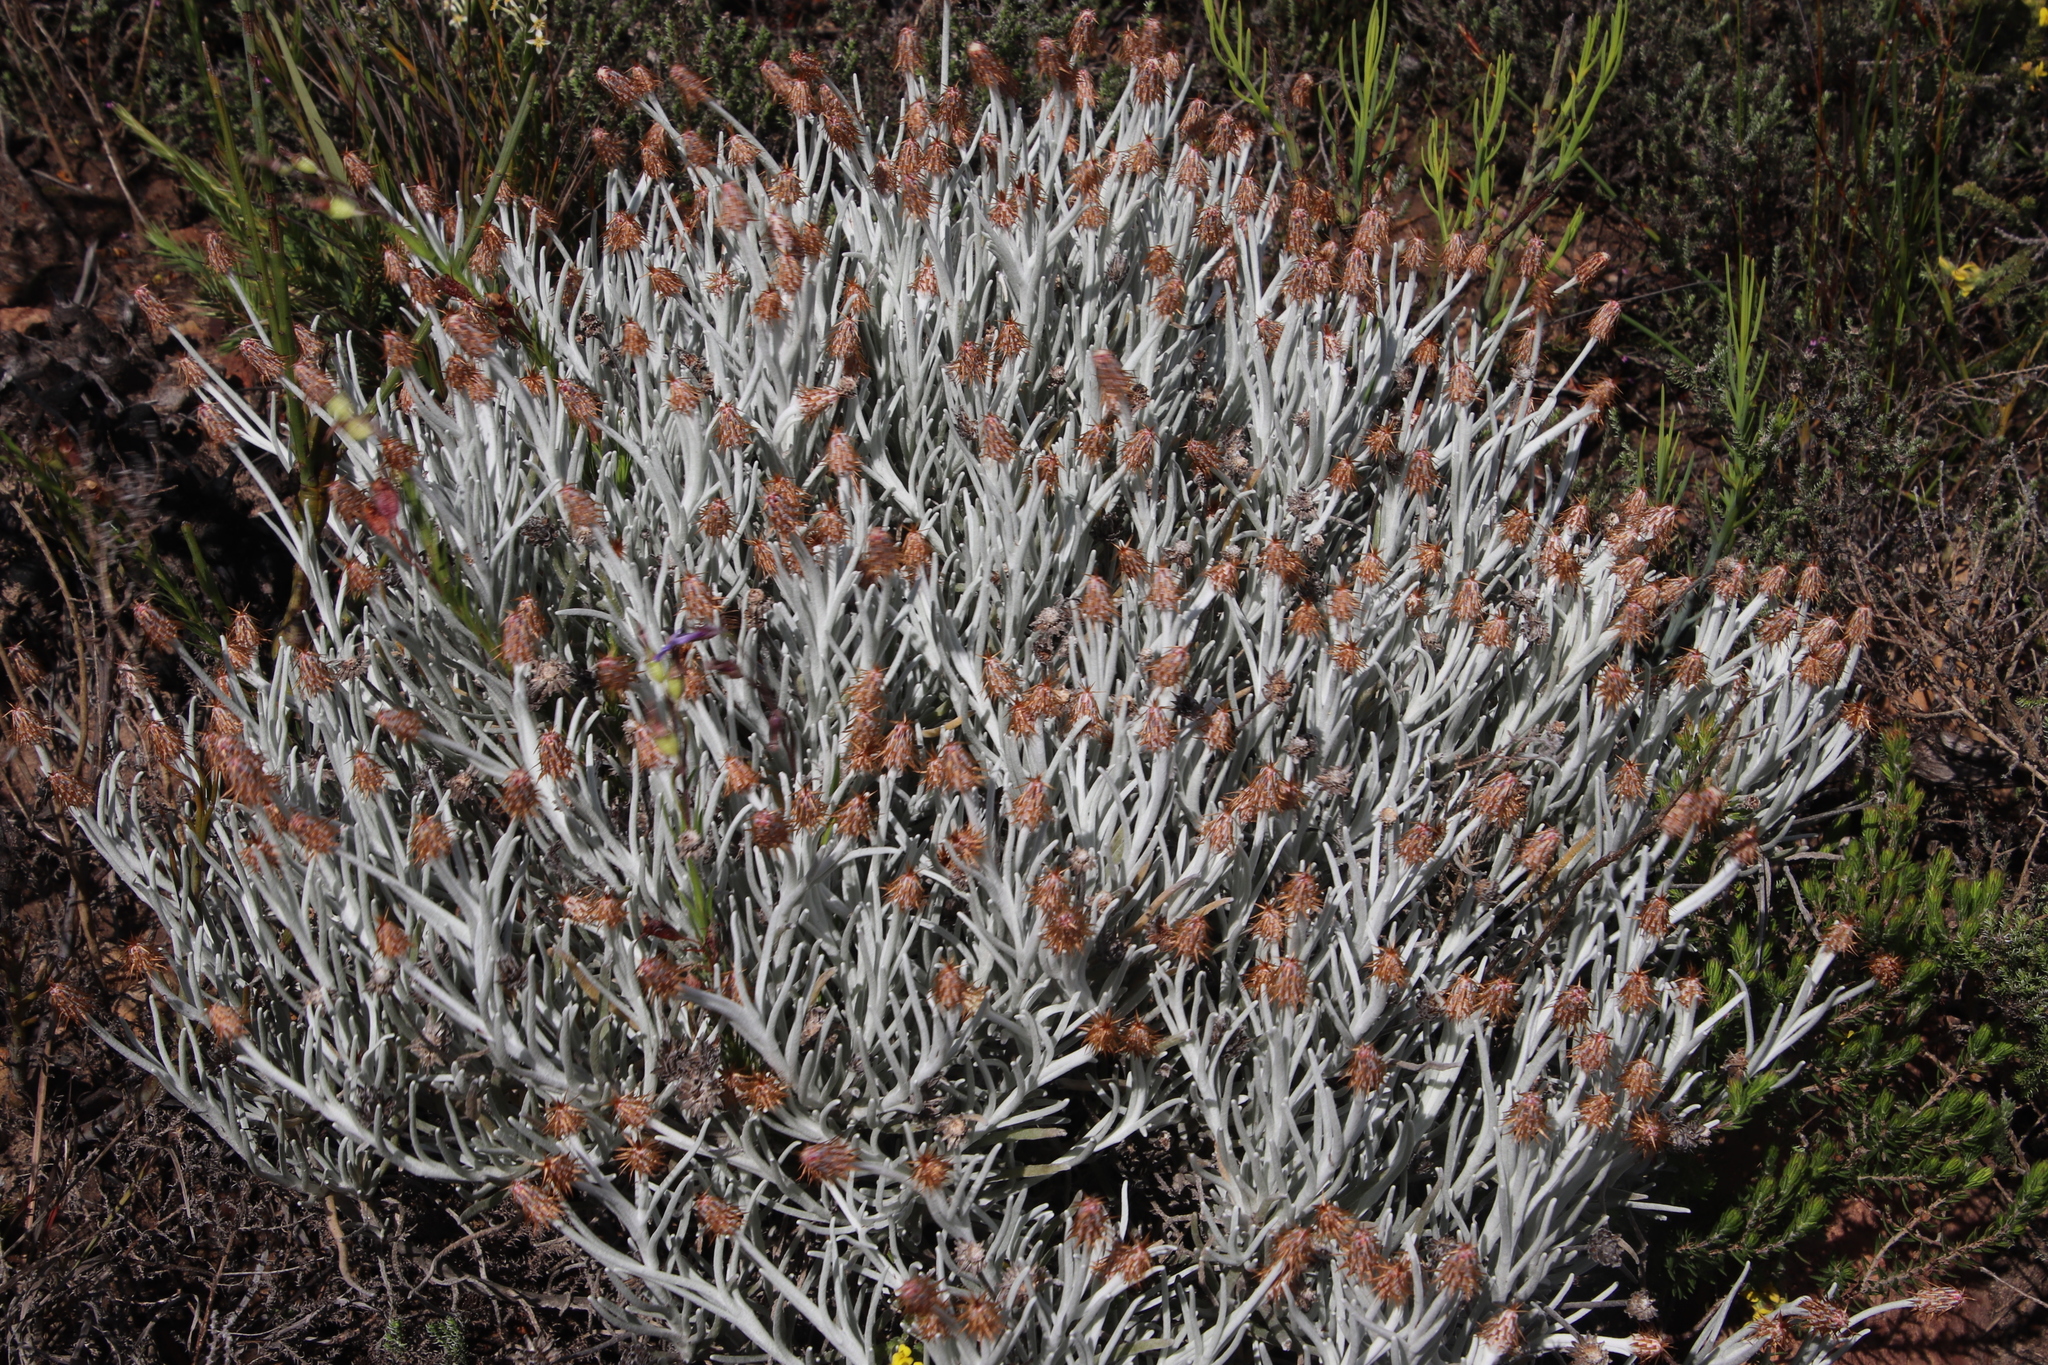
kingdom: Plantae
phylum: Tracheophyta
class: Magnoliopsida
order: Asterales
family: Asteraceae
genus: Syncarpha
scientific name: Syncarpha gnaphaloides
